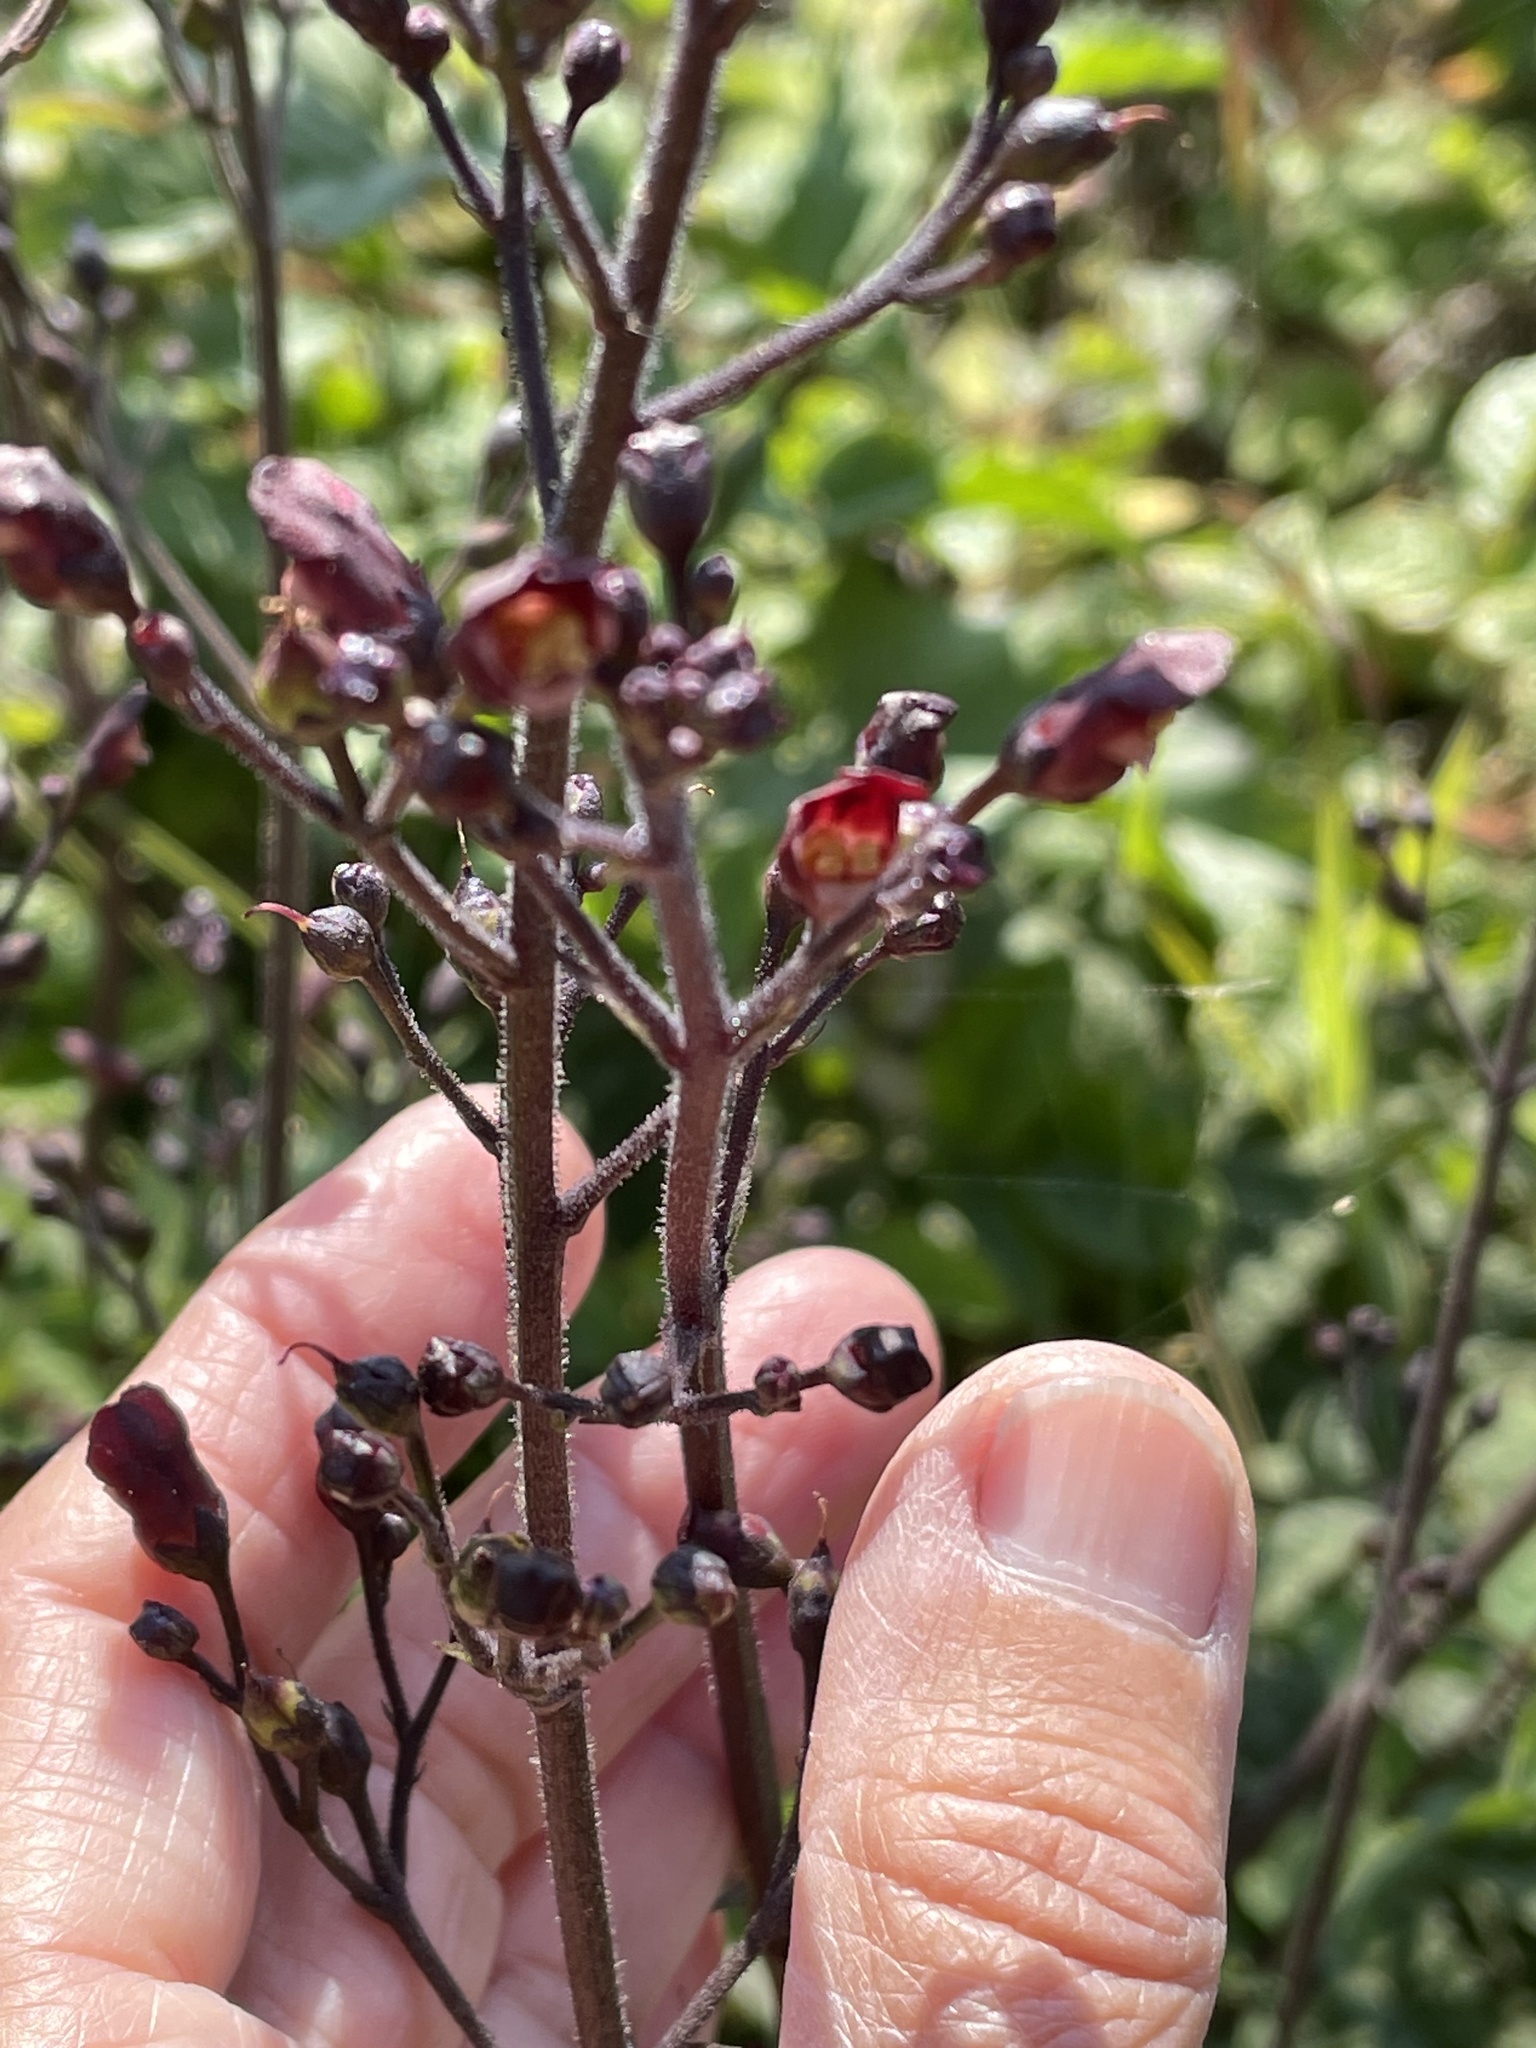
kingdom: Plantae
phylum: Tracheophyta
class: Magnoliopsida
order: Lamiales
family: Scrophulariaceae
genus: Scrophularia
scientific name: Scrophularia californica
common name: California figwort
